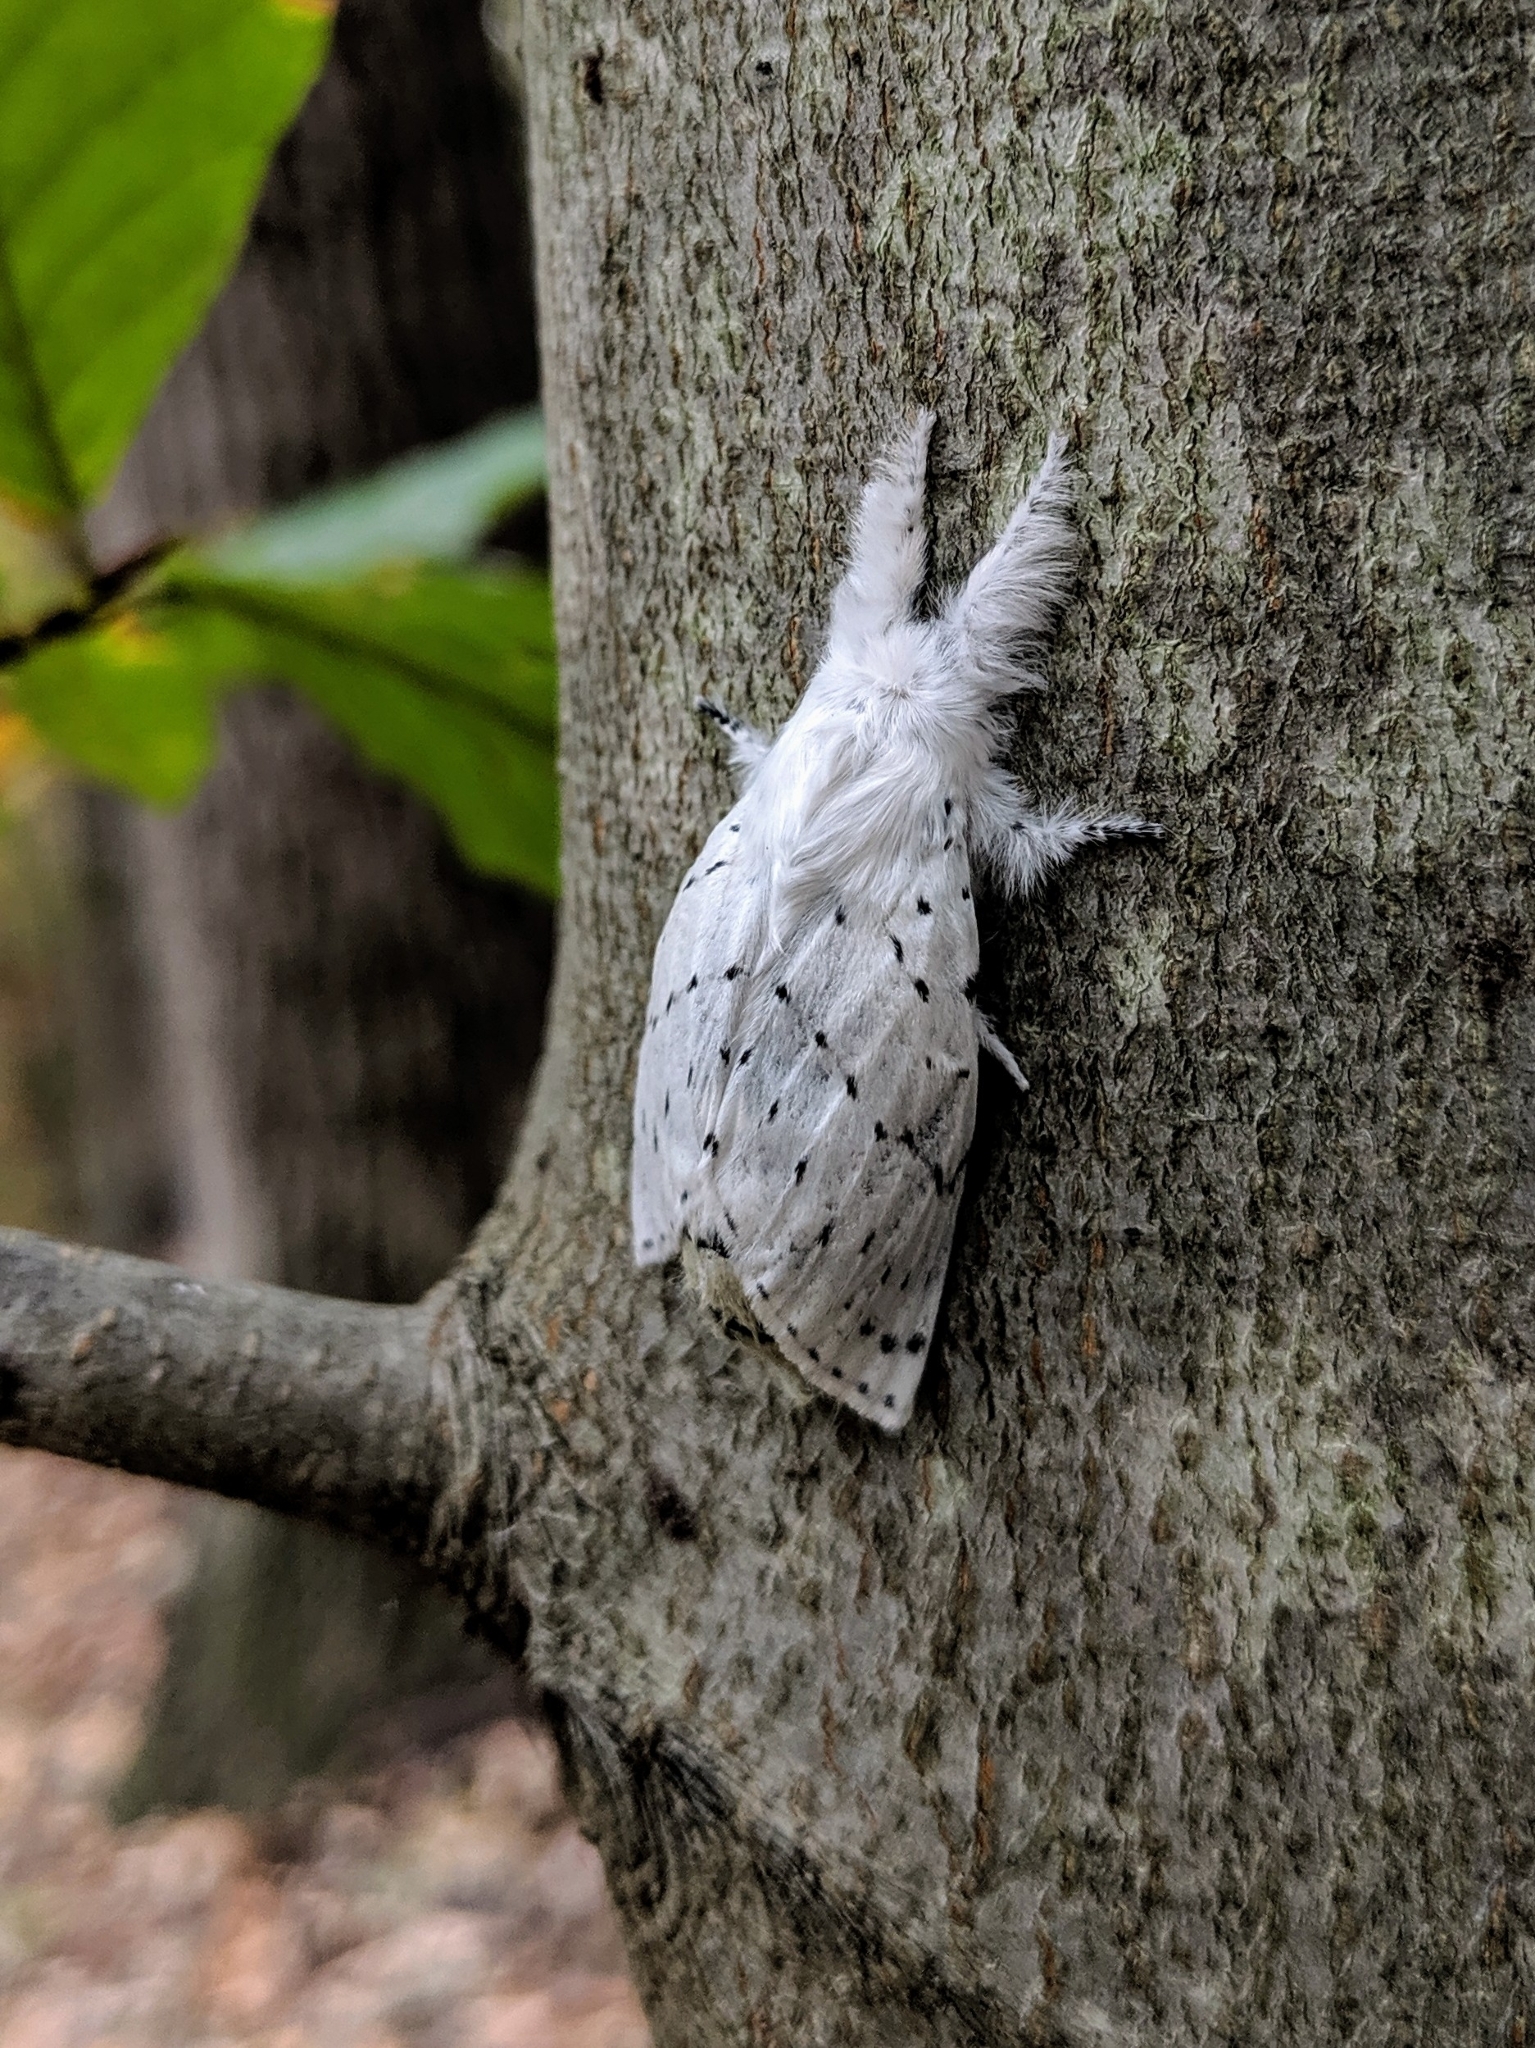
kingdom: Animalia
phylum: Arthropoda
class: Insecta
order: Lepidoptera
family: Lasiocampidae
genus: Artace
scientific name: Artace cribrarius
